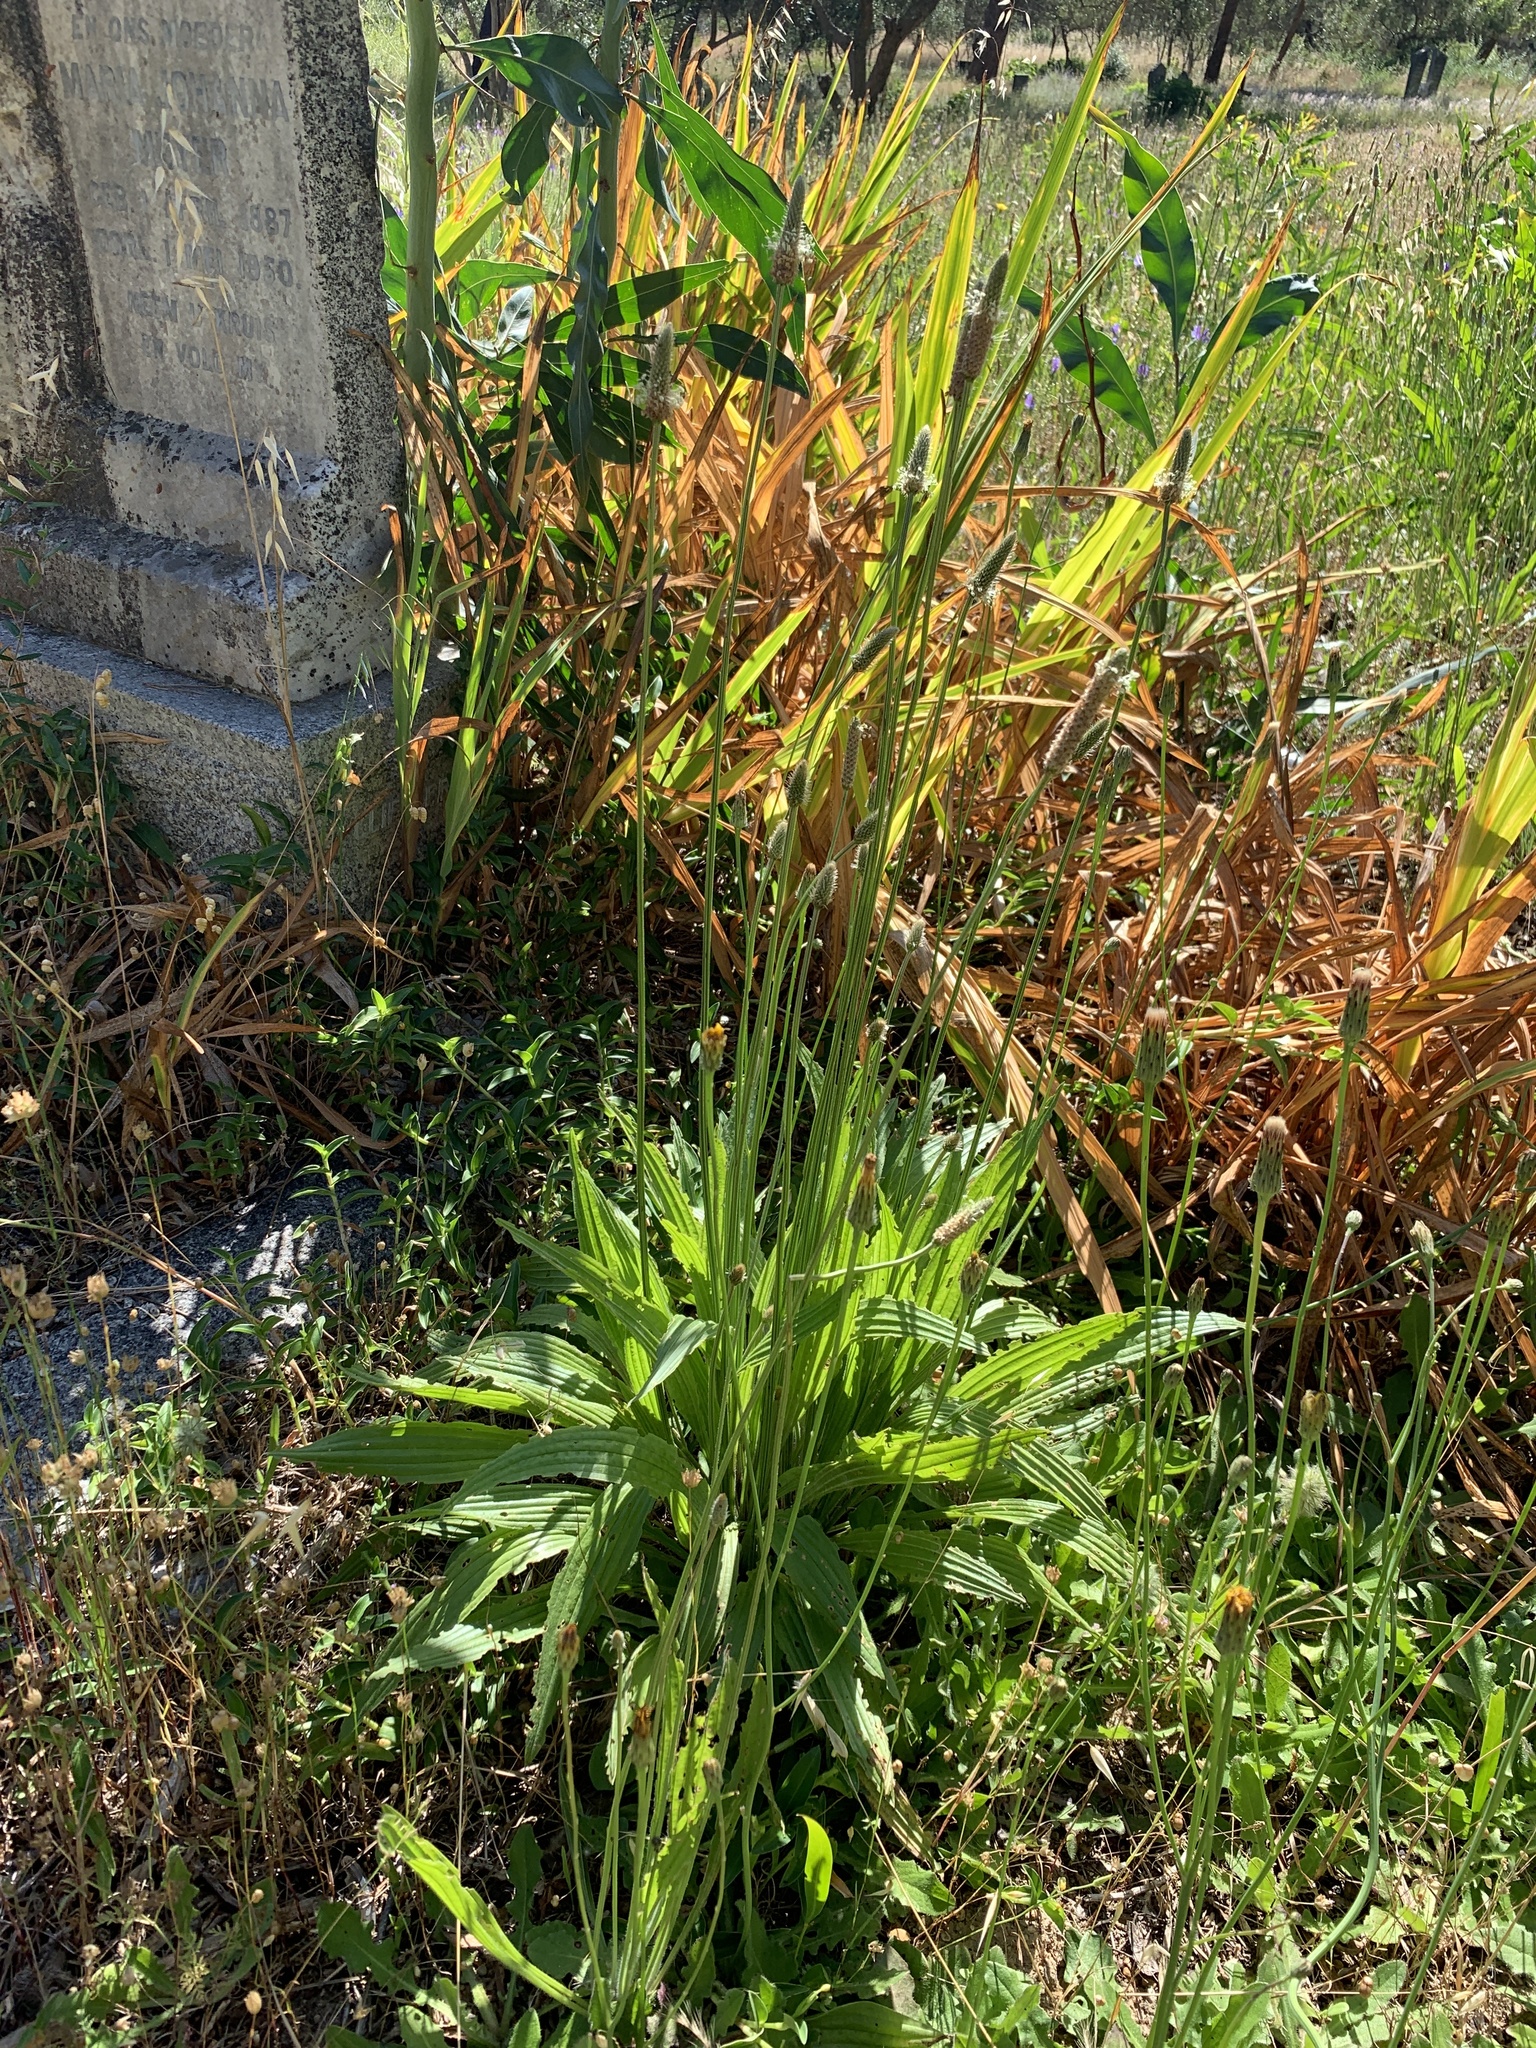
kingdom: Plantae
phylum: Tracheophyta
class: Magnoliopsida
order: Lamiales
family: Plantaginaceae
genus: Plantago
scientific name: Plantago lanceolata
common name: Ribwort plantain
